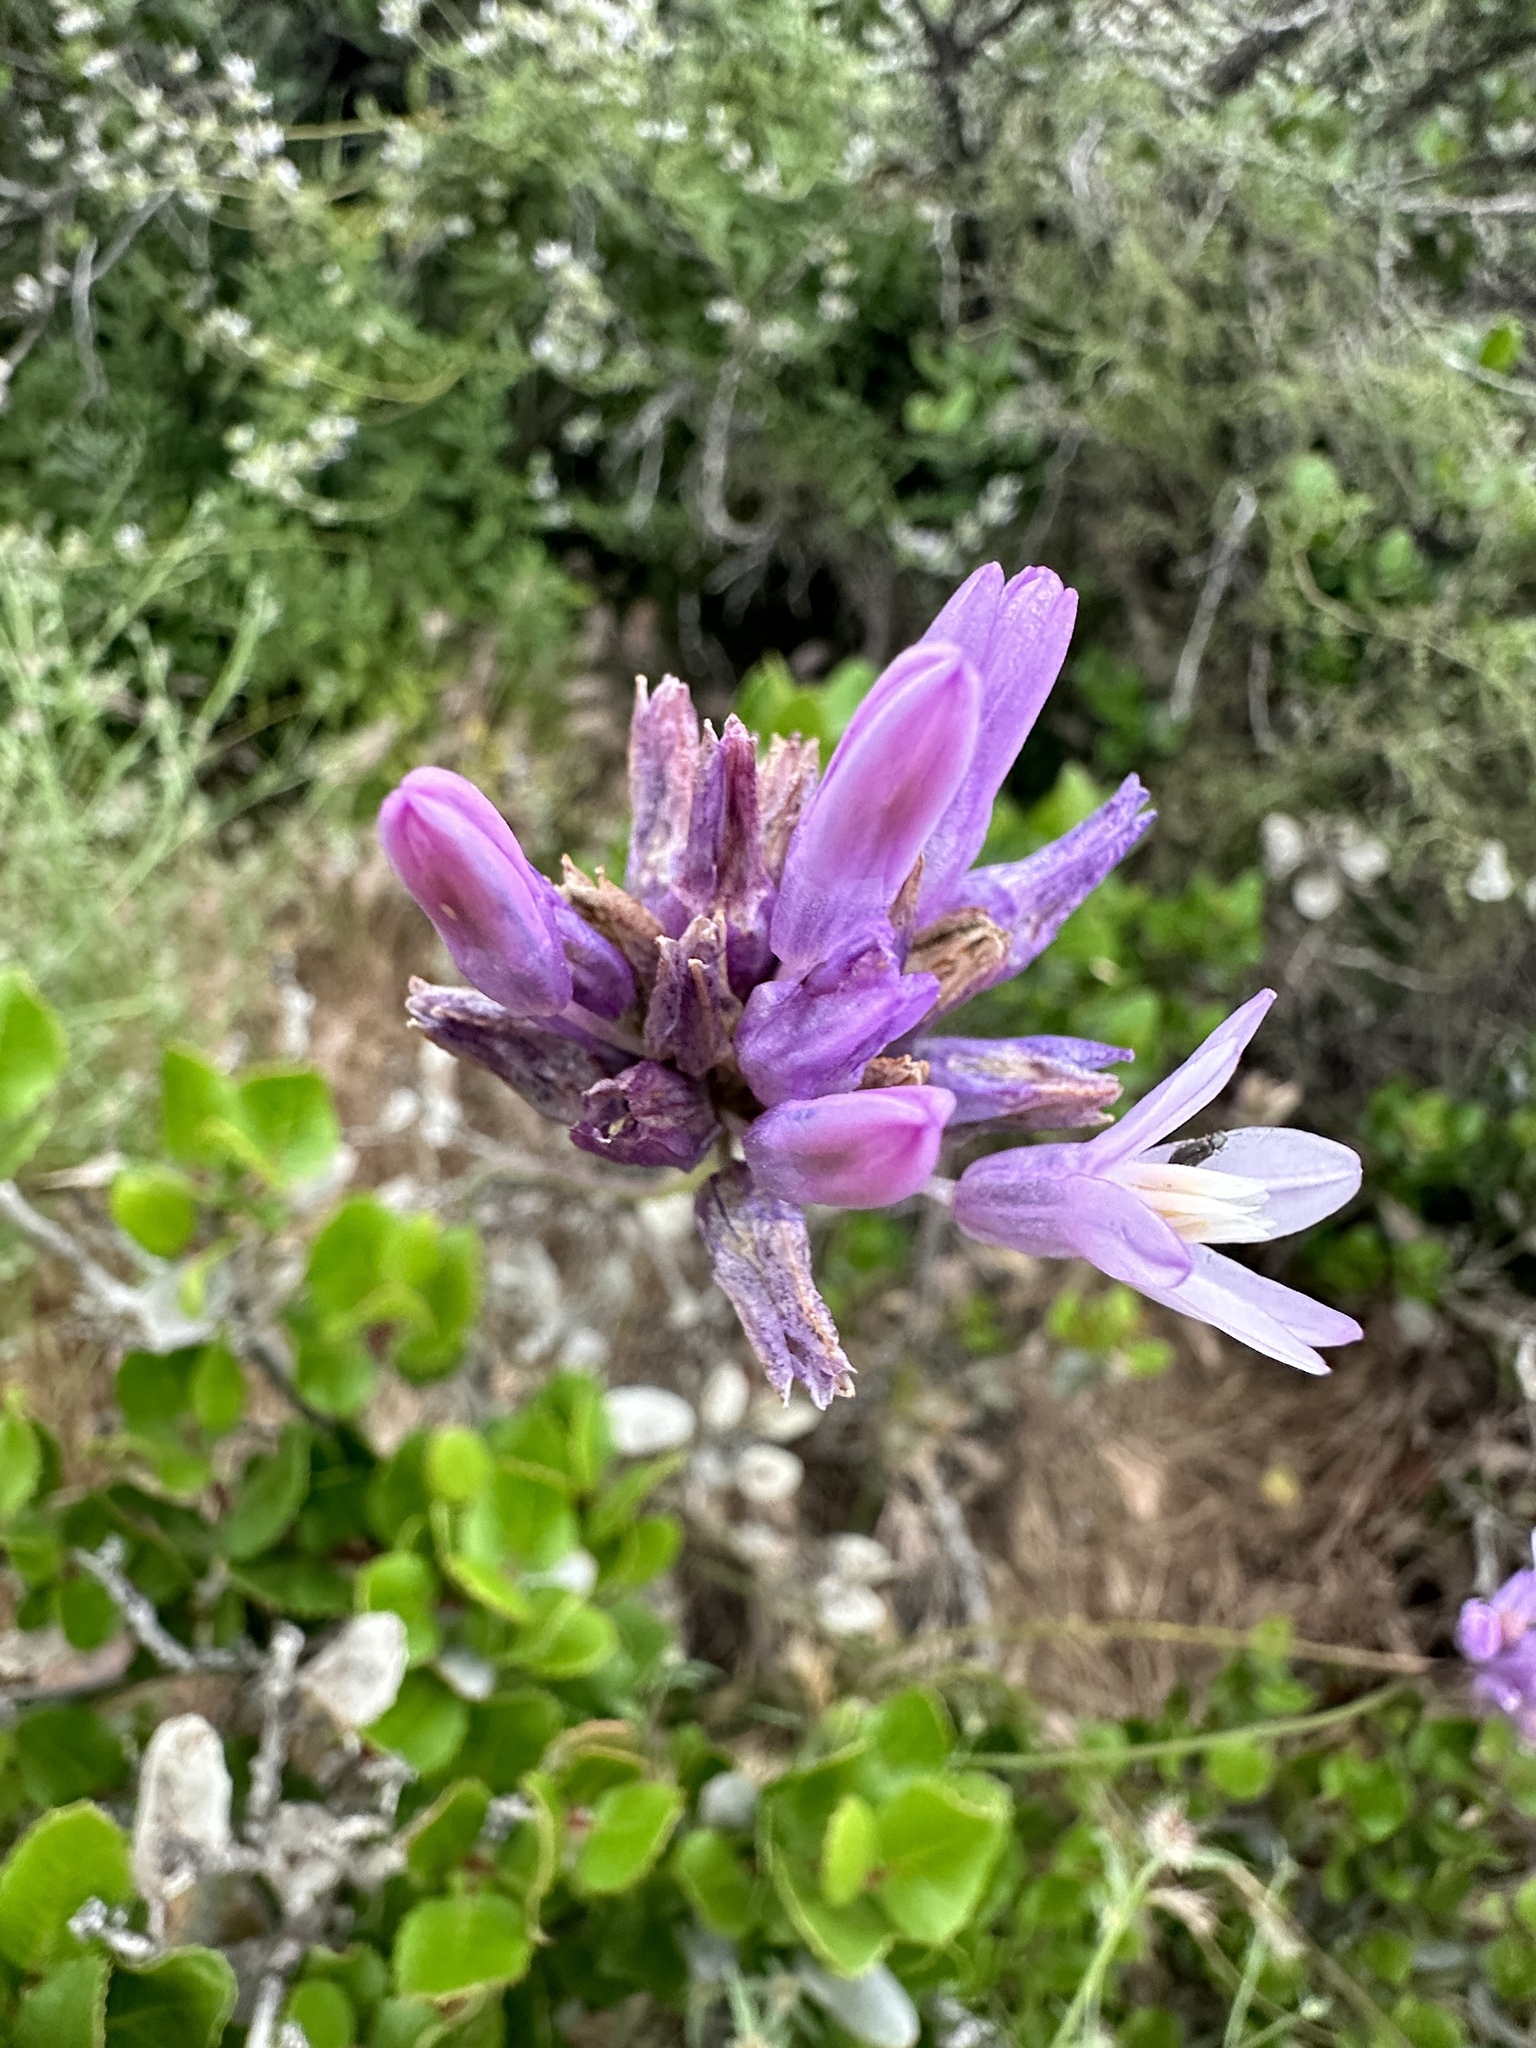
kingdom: Plantae
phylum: Tracheophyta
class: Liliopsida
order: Asparagales
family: Asparagaceae
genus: Dipterostemon
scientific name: Dipterostemon capitatus
